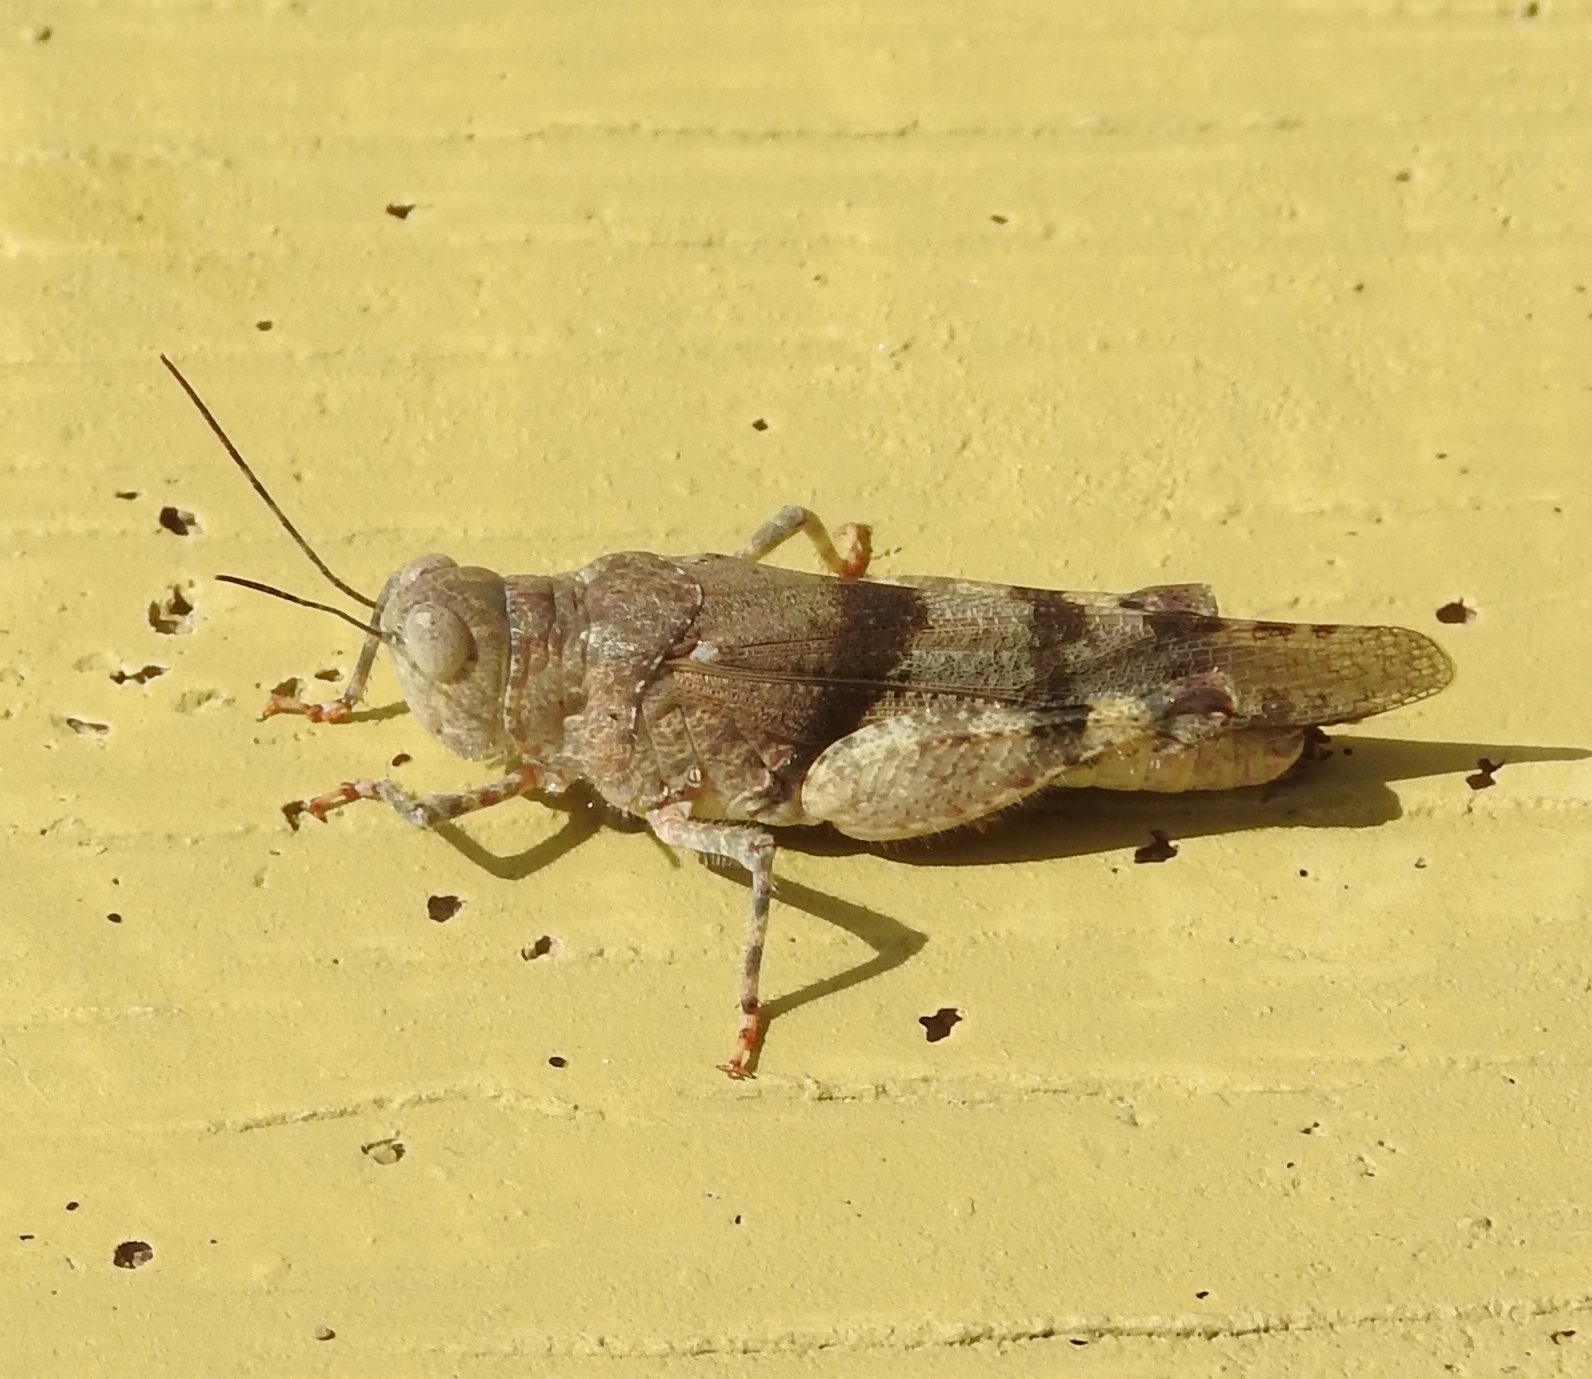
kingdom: Animalia
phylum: Arthropoda
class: Insecta
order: Orthoptera
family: Acrididae
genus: Heliastus
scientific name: Heliastus benjamini
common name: Arroyo grasshopper
